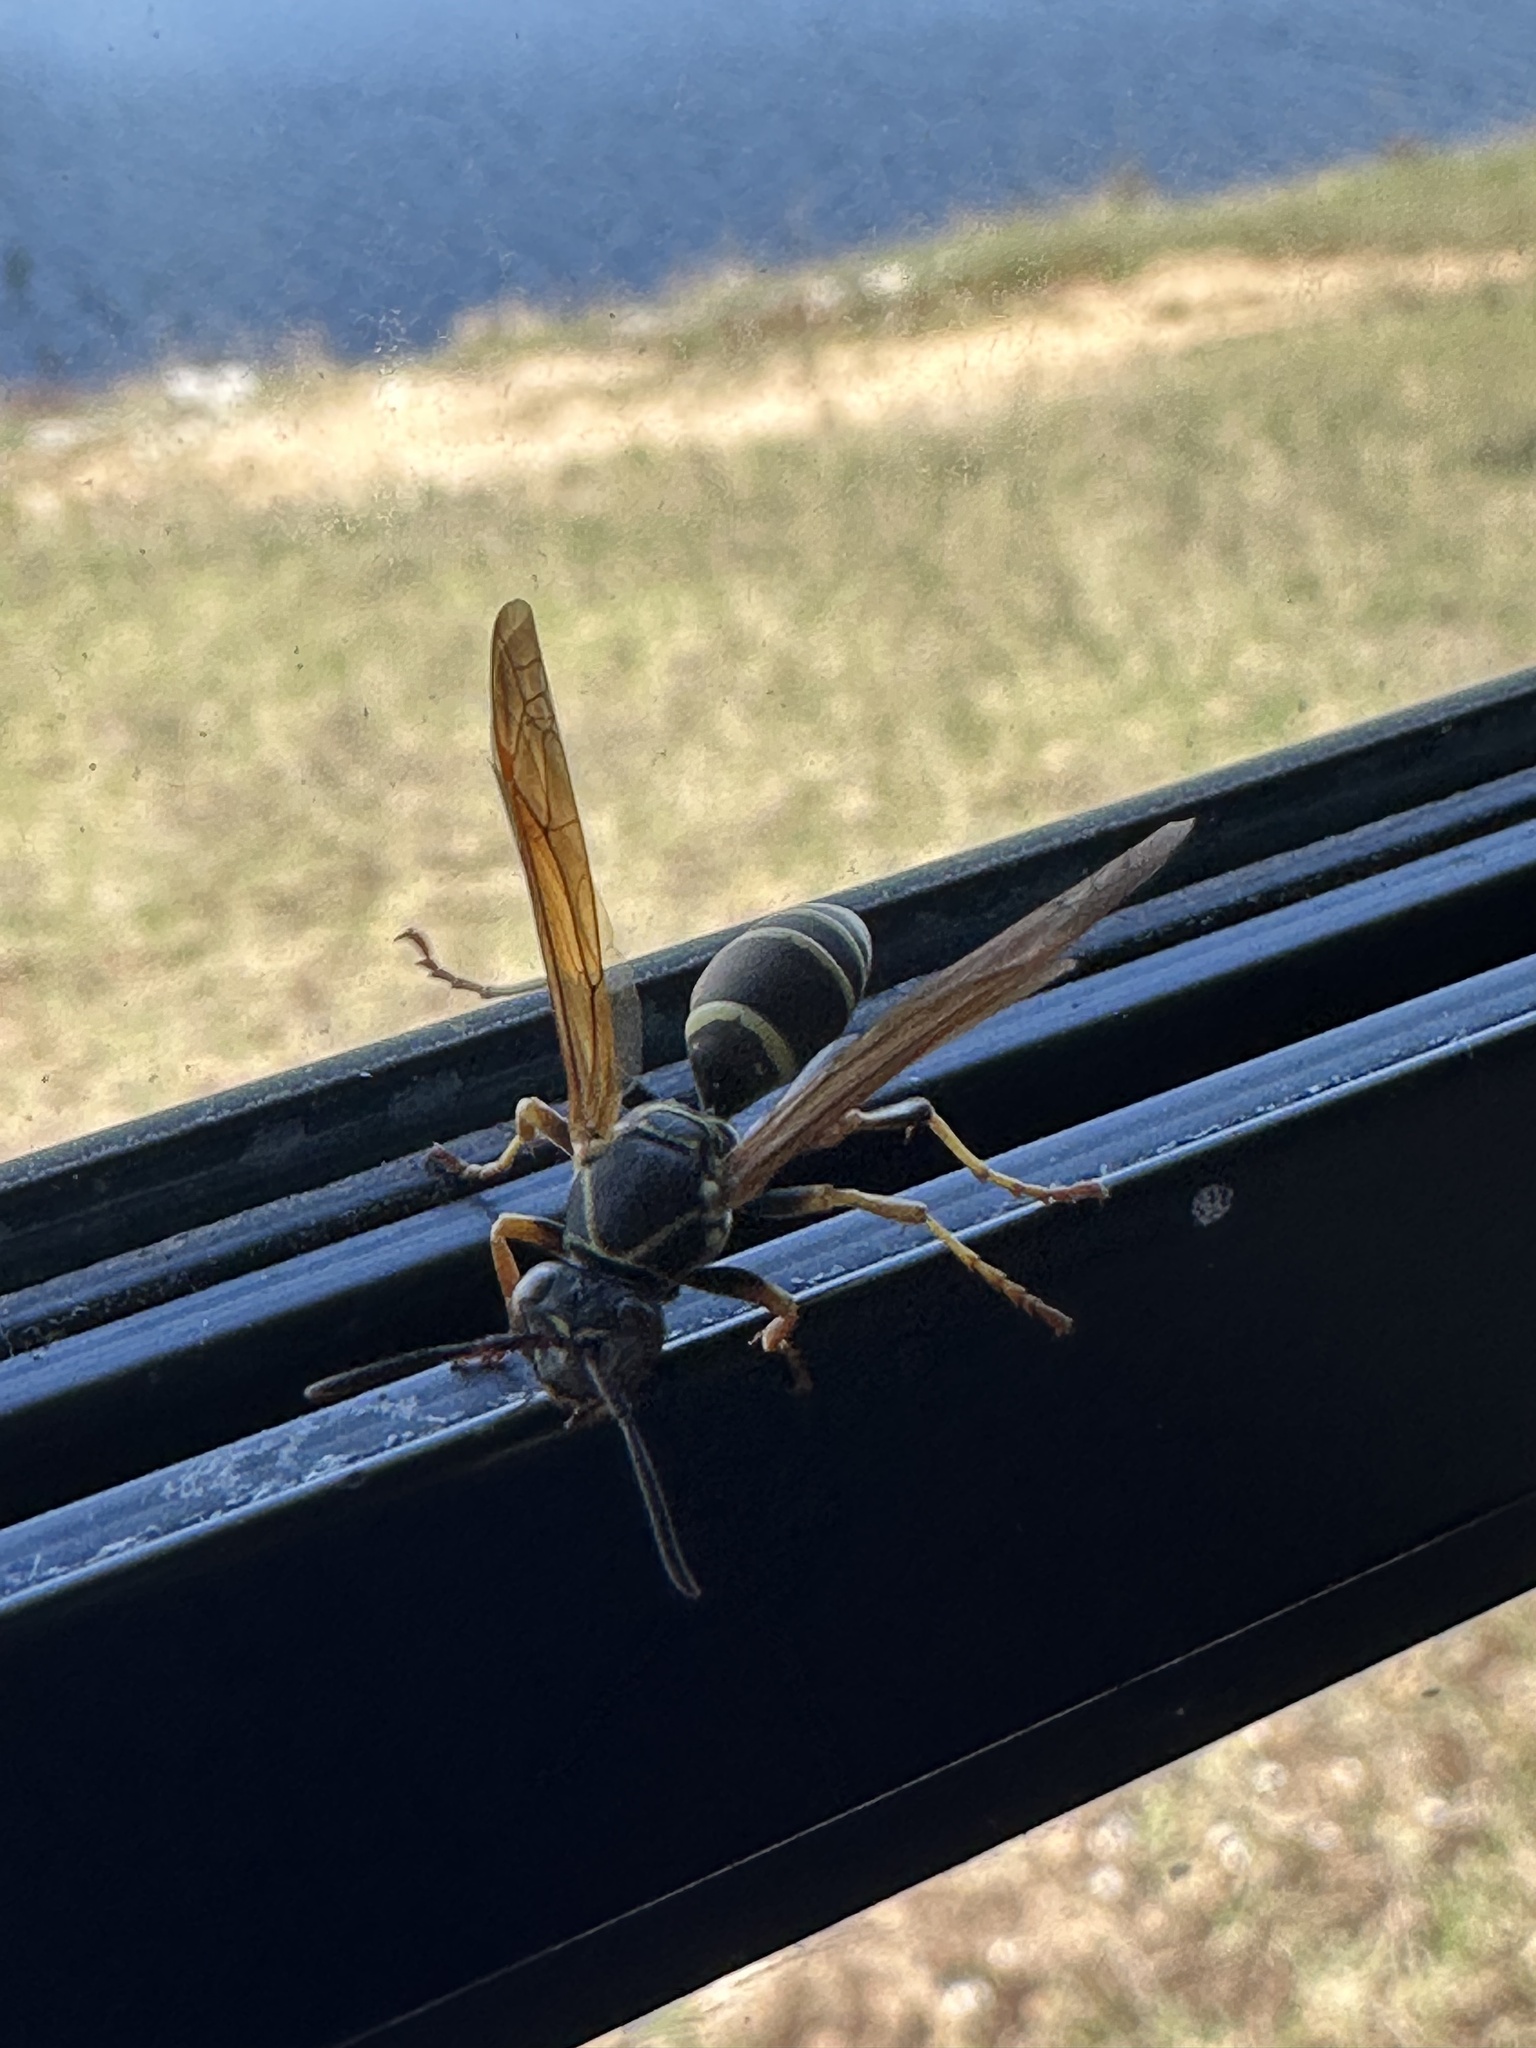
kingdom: Animalia
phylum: Arthropoda
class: Insecta
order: Hymenoptera
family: Eumenidae
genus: Polistes
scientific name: Polistes fuscatus
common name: Dark paper wasp
